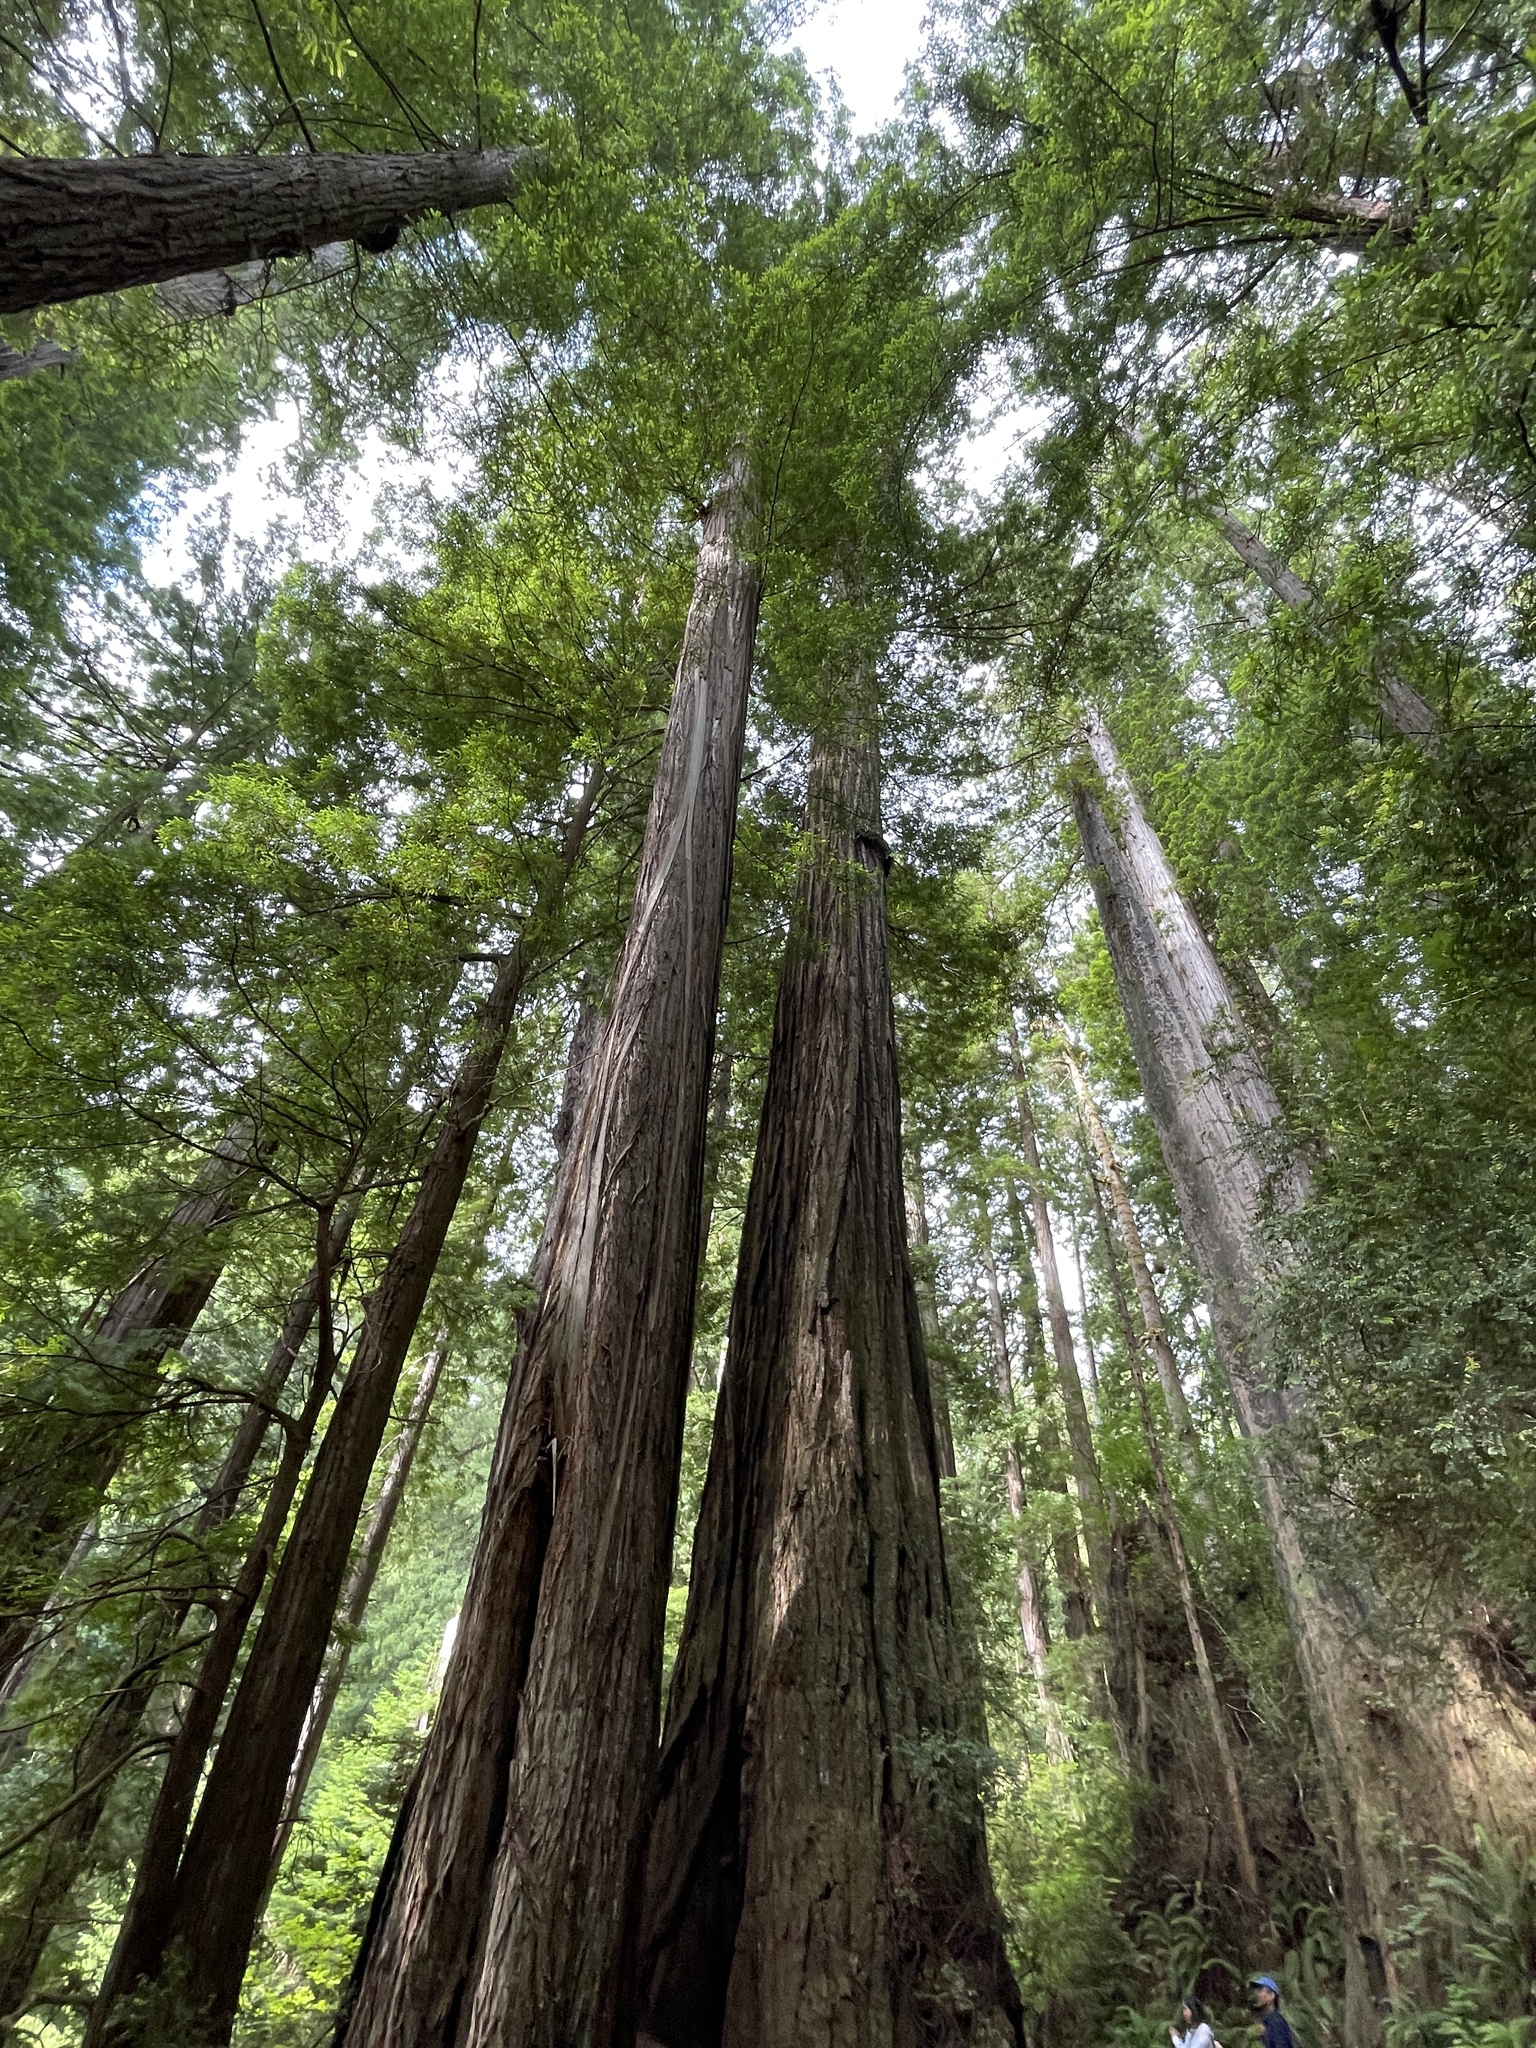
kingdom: Plantae
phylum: Tracheophyta
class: Pinopsida
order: Pinales
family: Cupressaceae
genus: Sequoia
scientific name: Sequoia sempervirens
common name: Coast redwood
